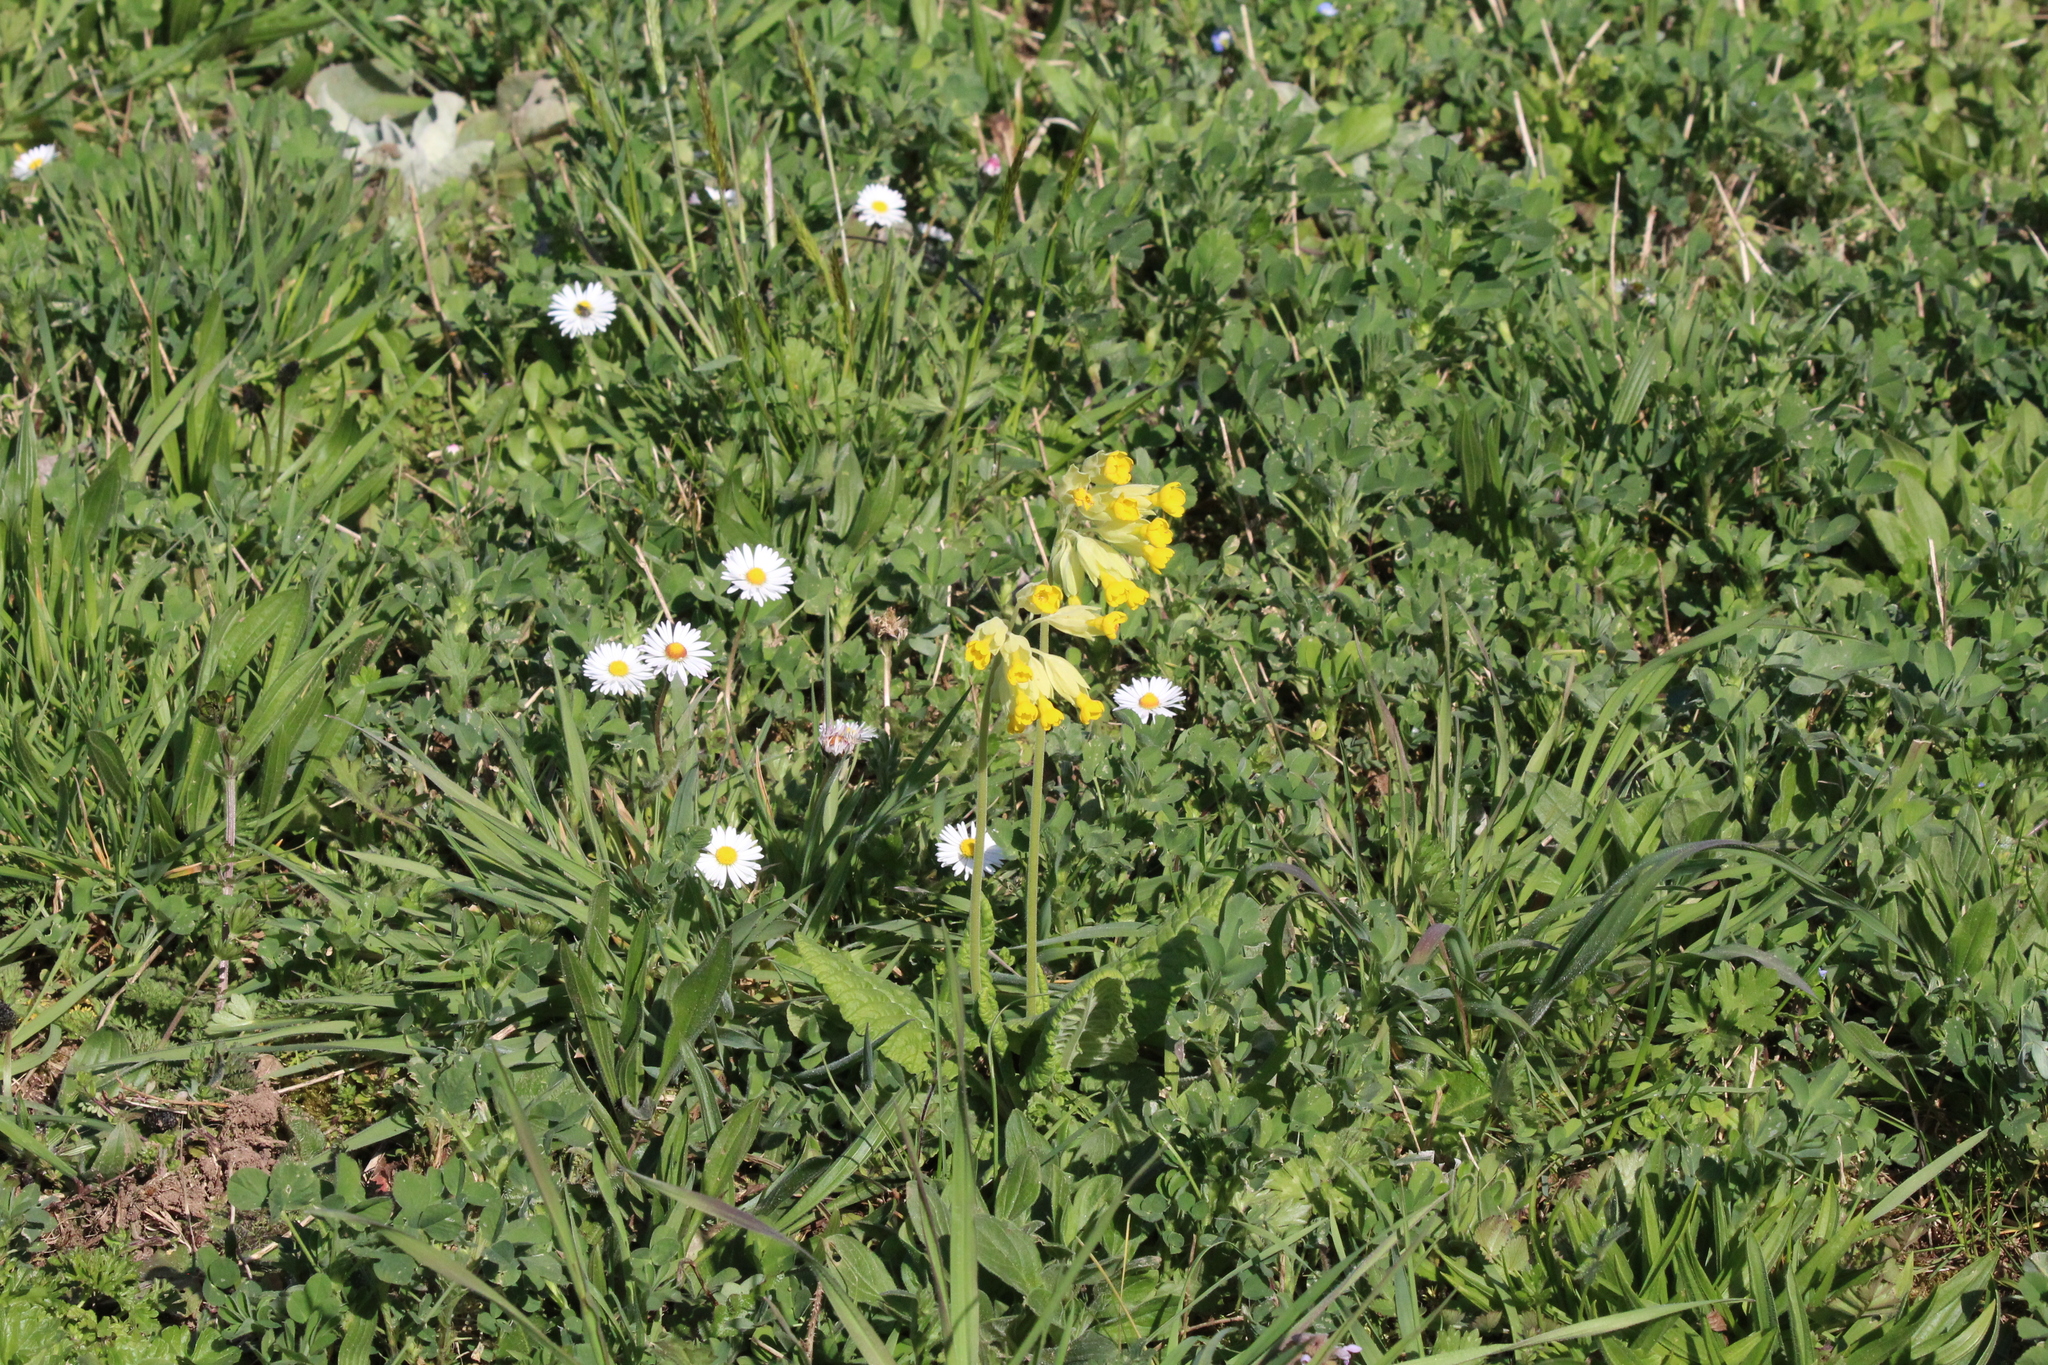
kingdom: Plantae
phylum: Tracheophyta
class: Magnoliopsida
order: Ericales
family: Primulaceae
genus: Primula
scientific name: Primula veris
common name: Cowslip
